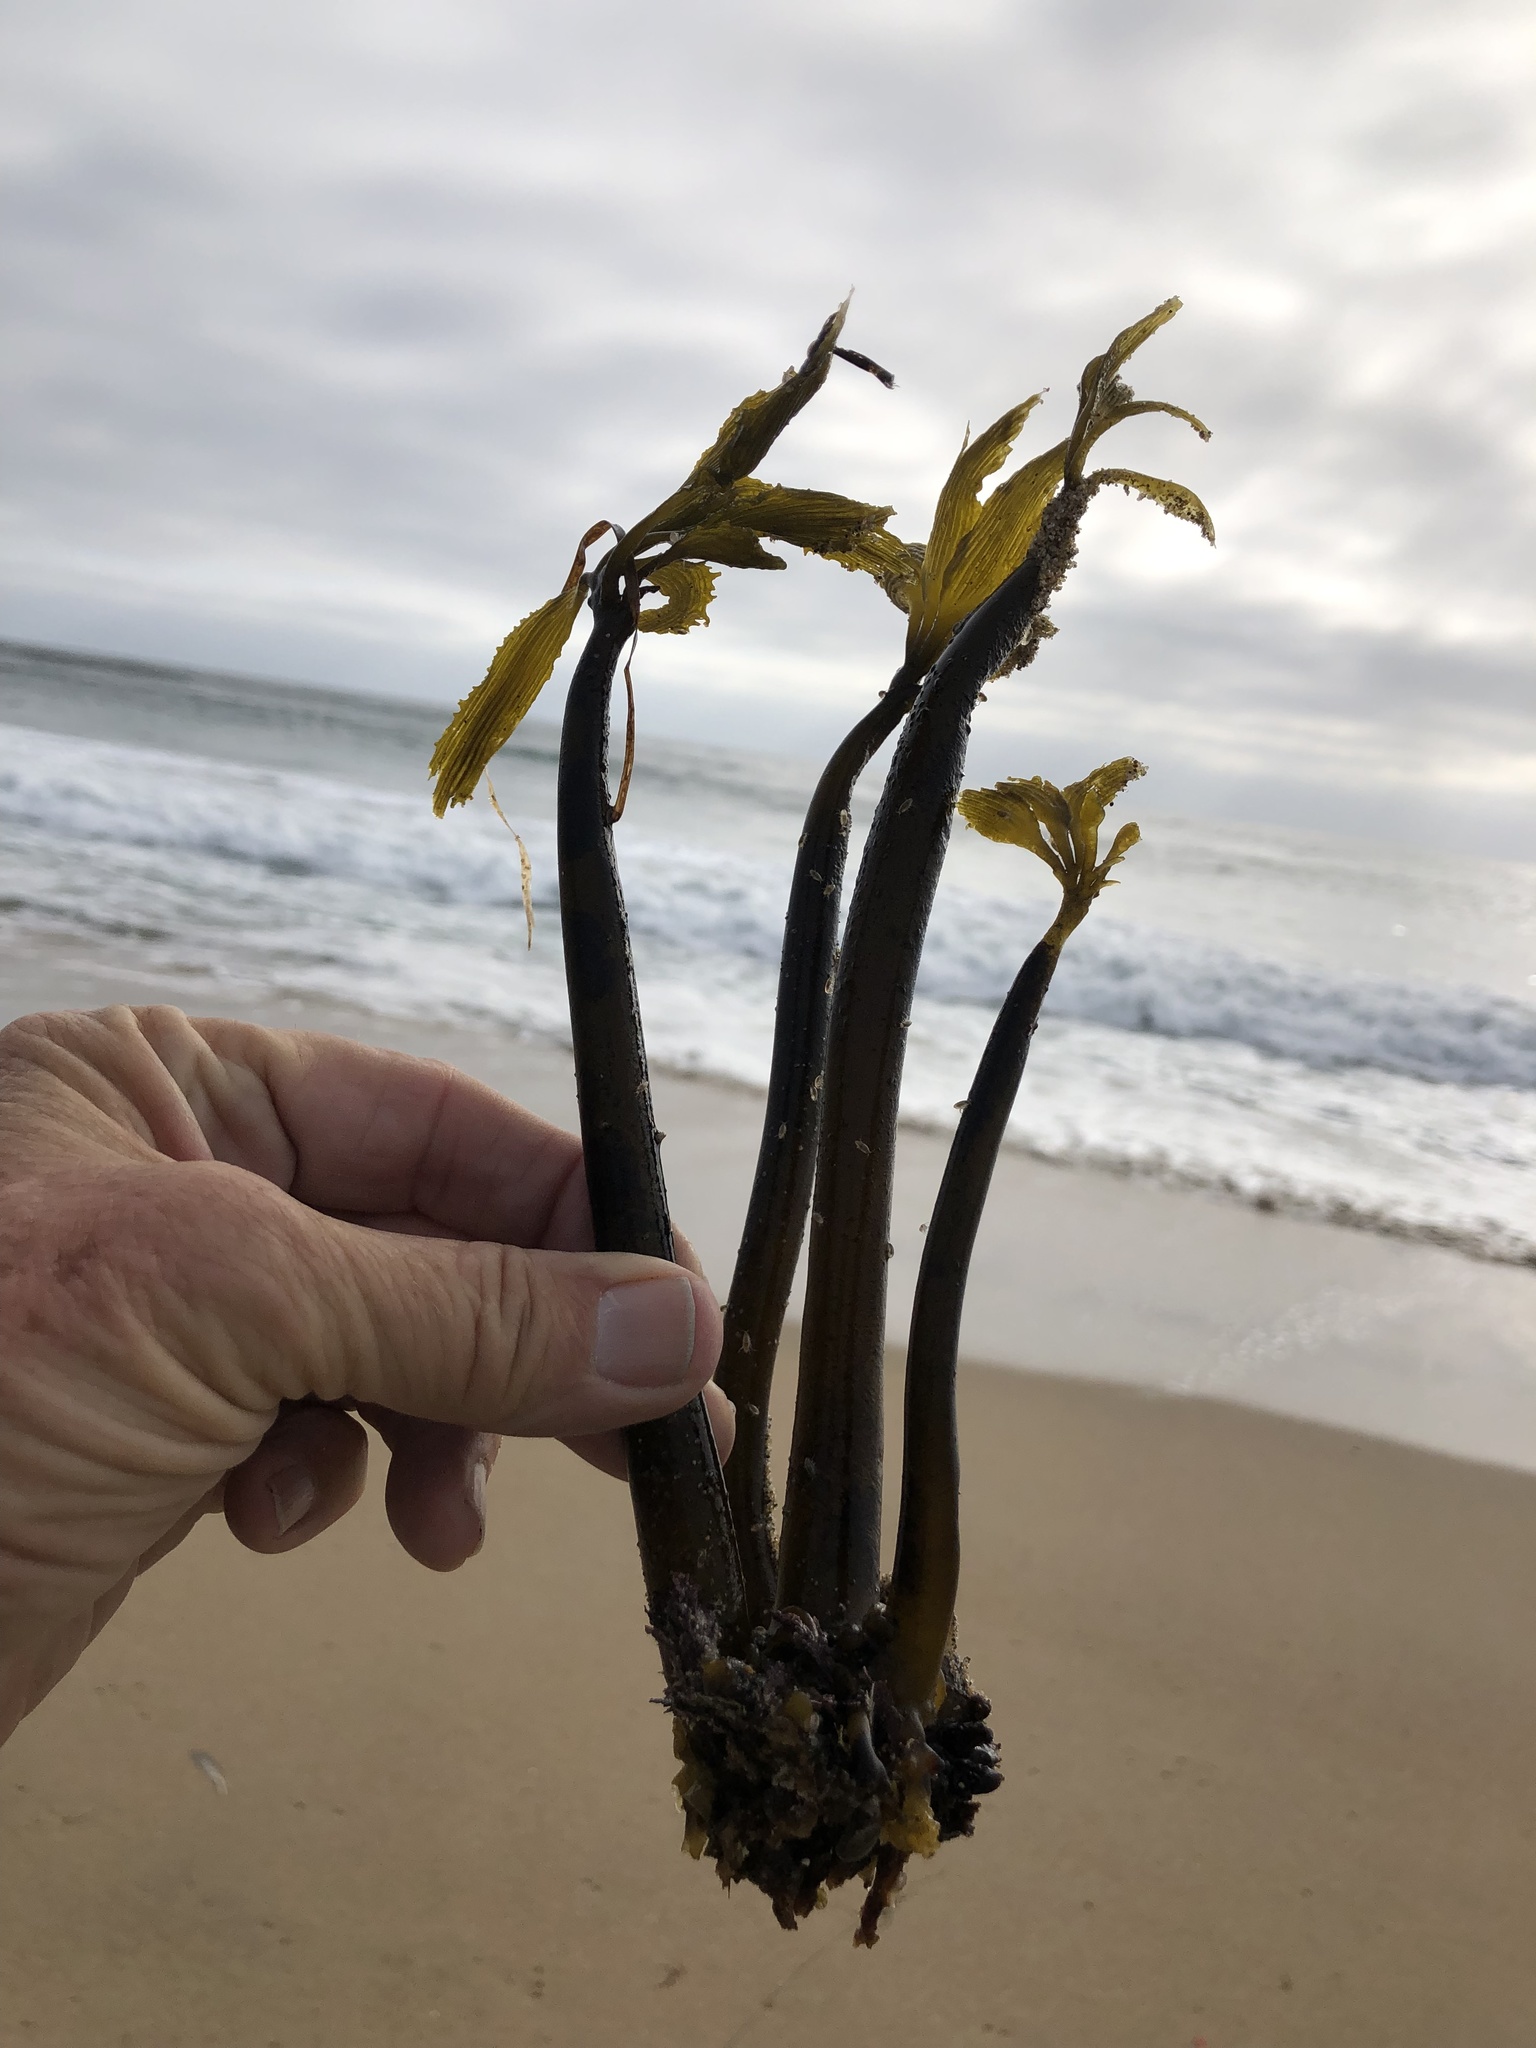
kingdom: Chromista
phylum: Ochrophyta
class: Phaeophyceae
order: Laminariales
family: Laminariaceae
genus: Postelsia
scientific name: Postelsia palmiformis
